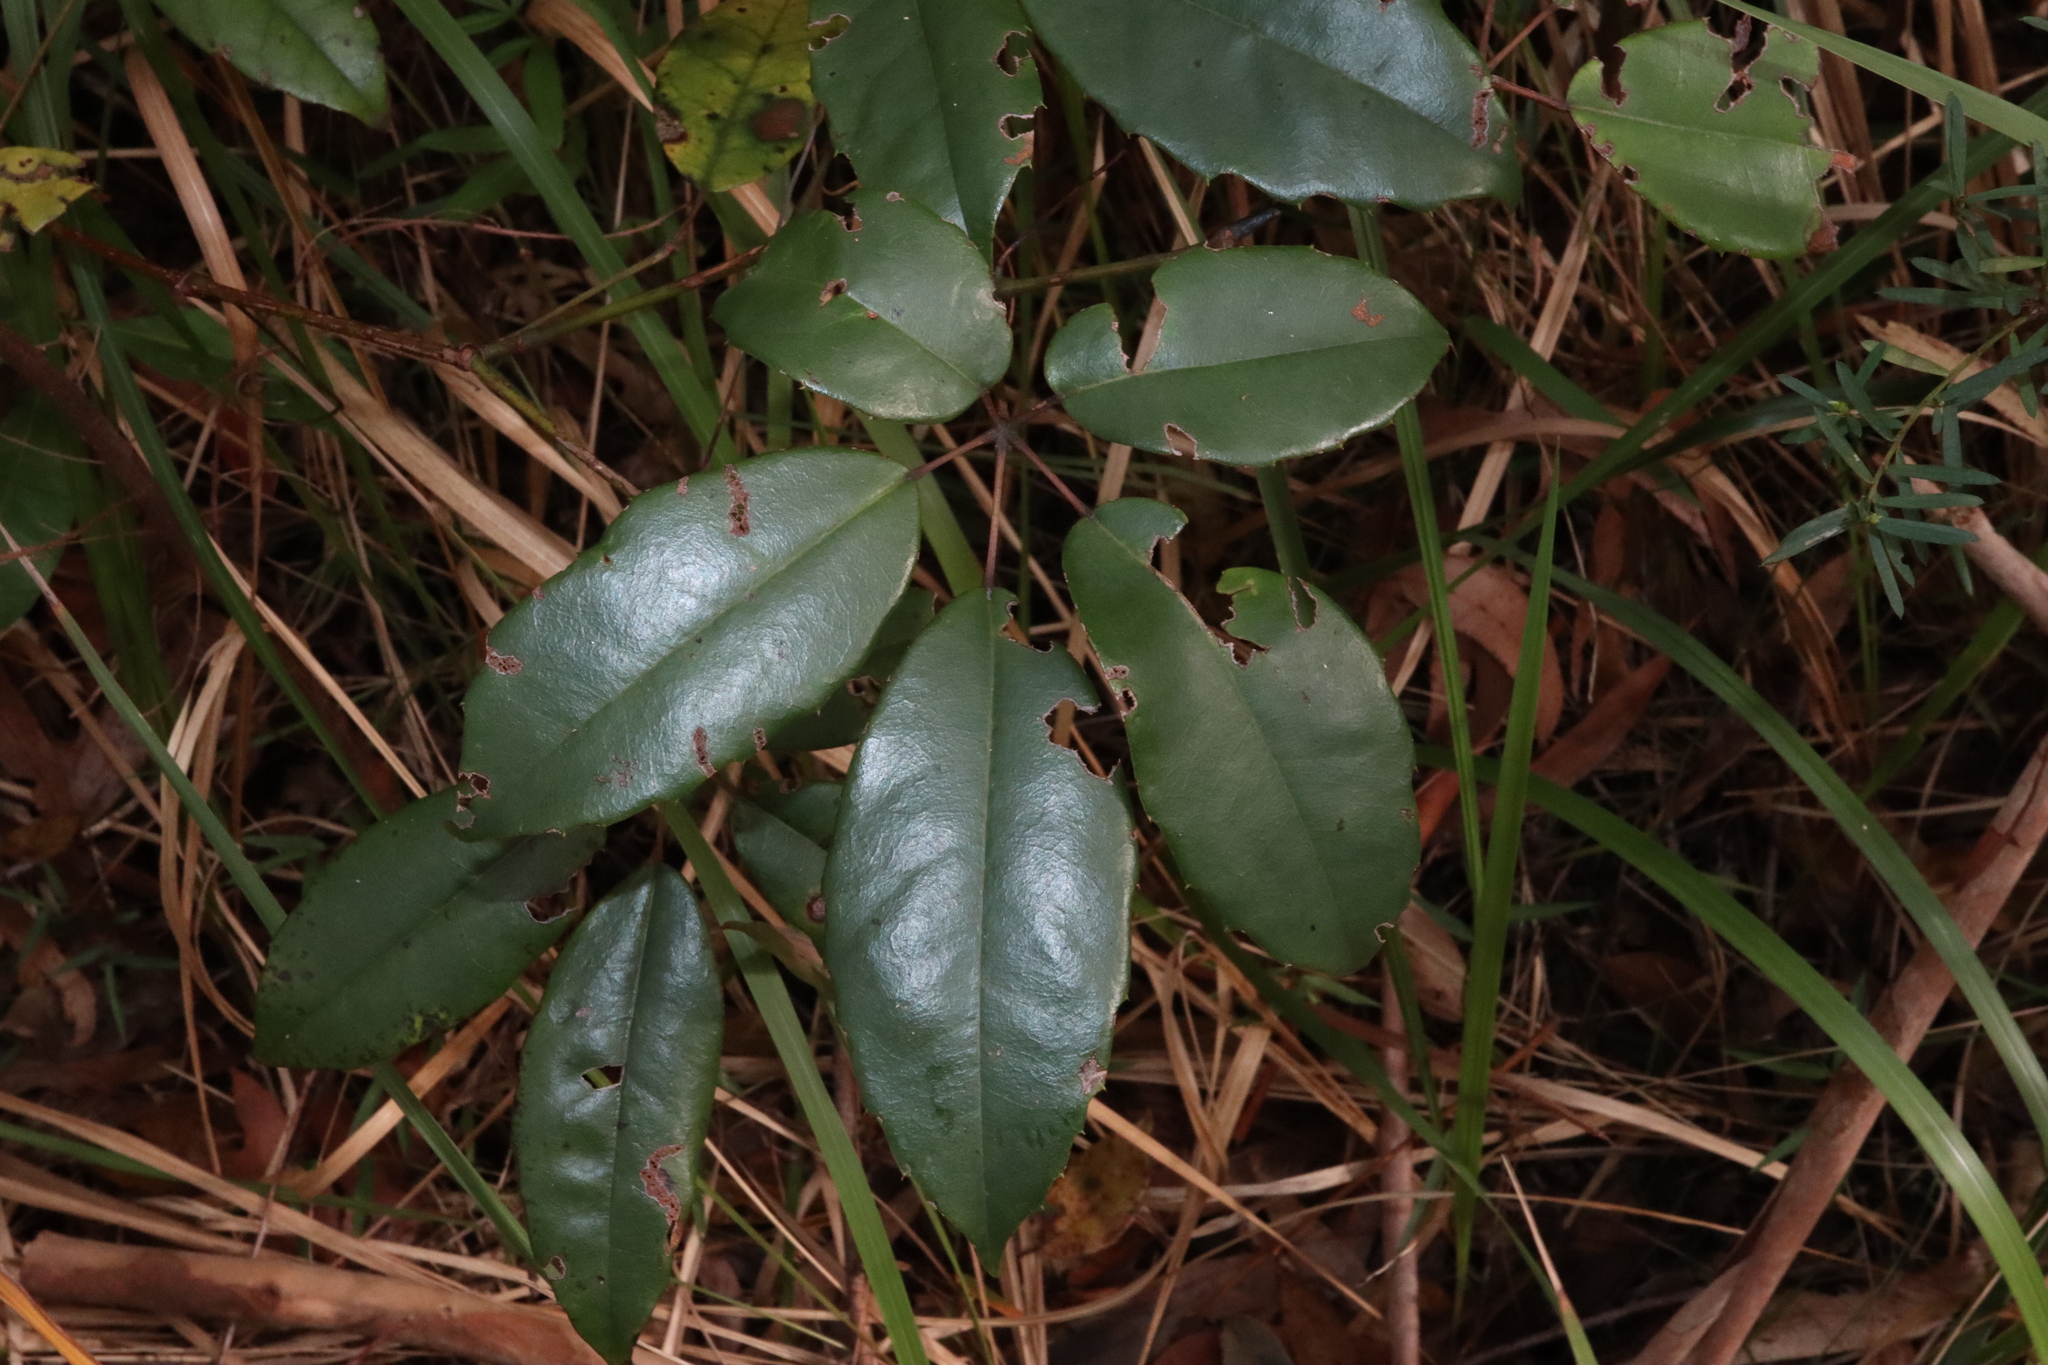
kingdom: Plantae
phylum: Tracheophyta
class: Magnoliopsida
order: Vitales
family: Vitaceae
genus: Nothocissus
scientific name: Nothocissus hypoglauca
